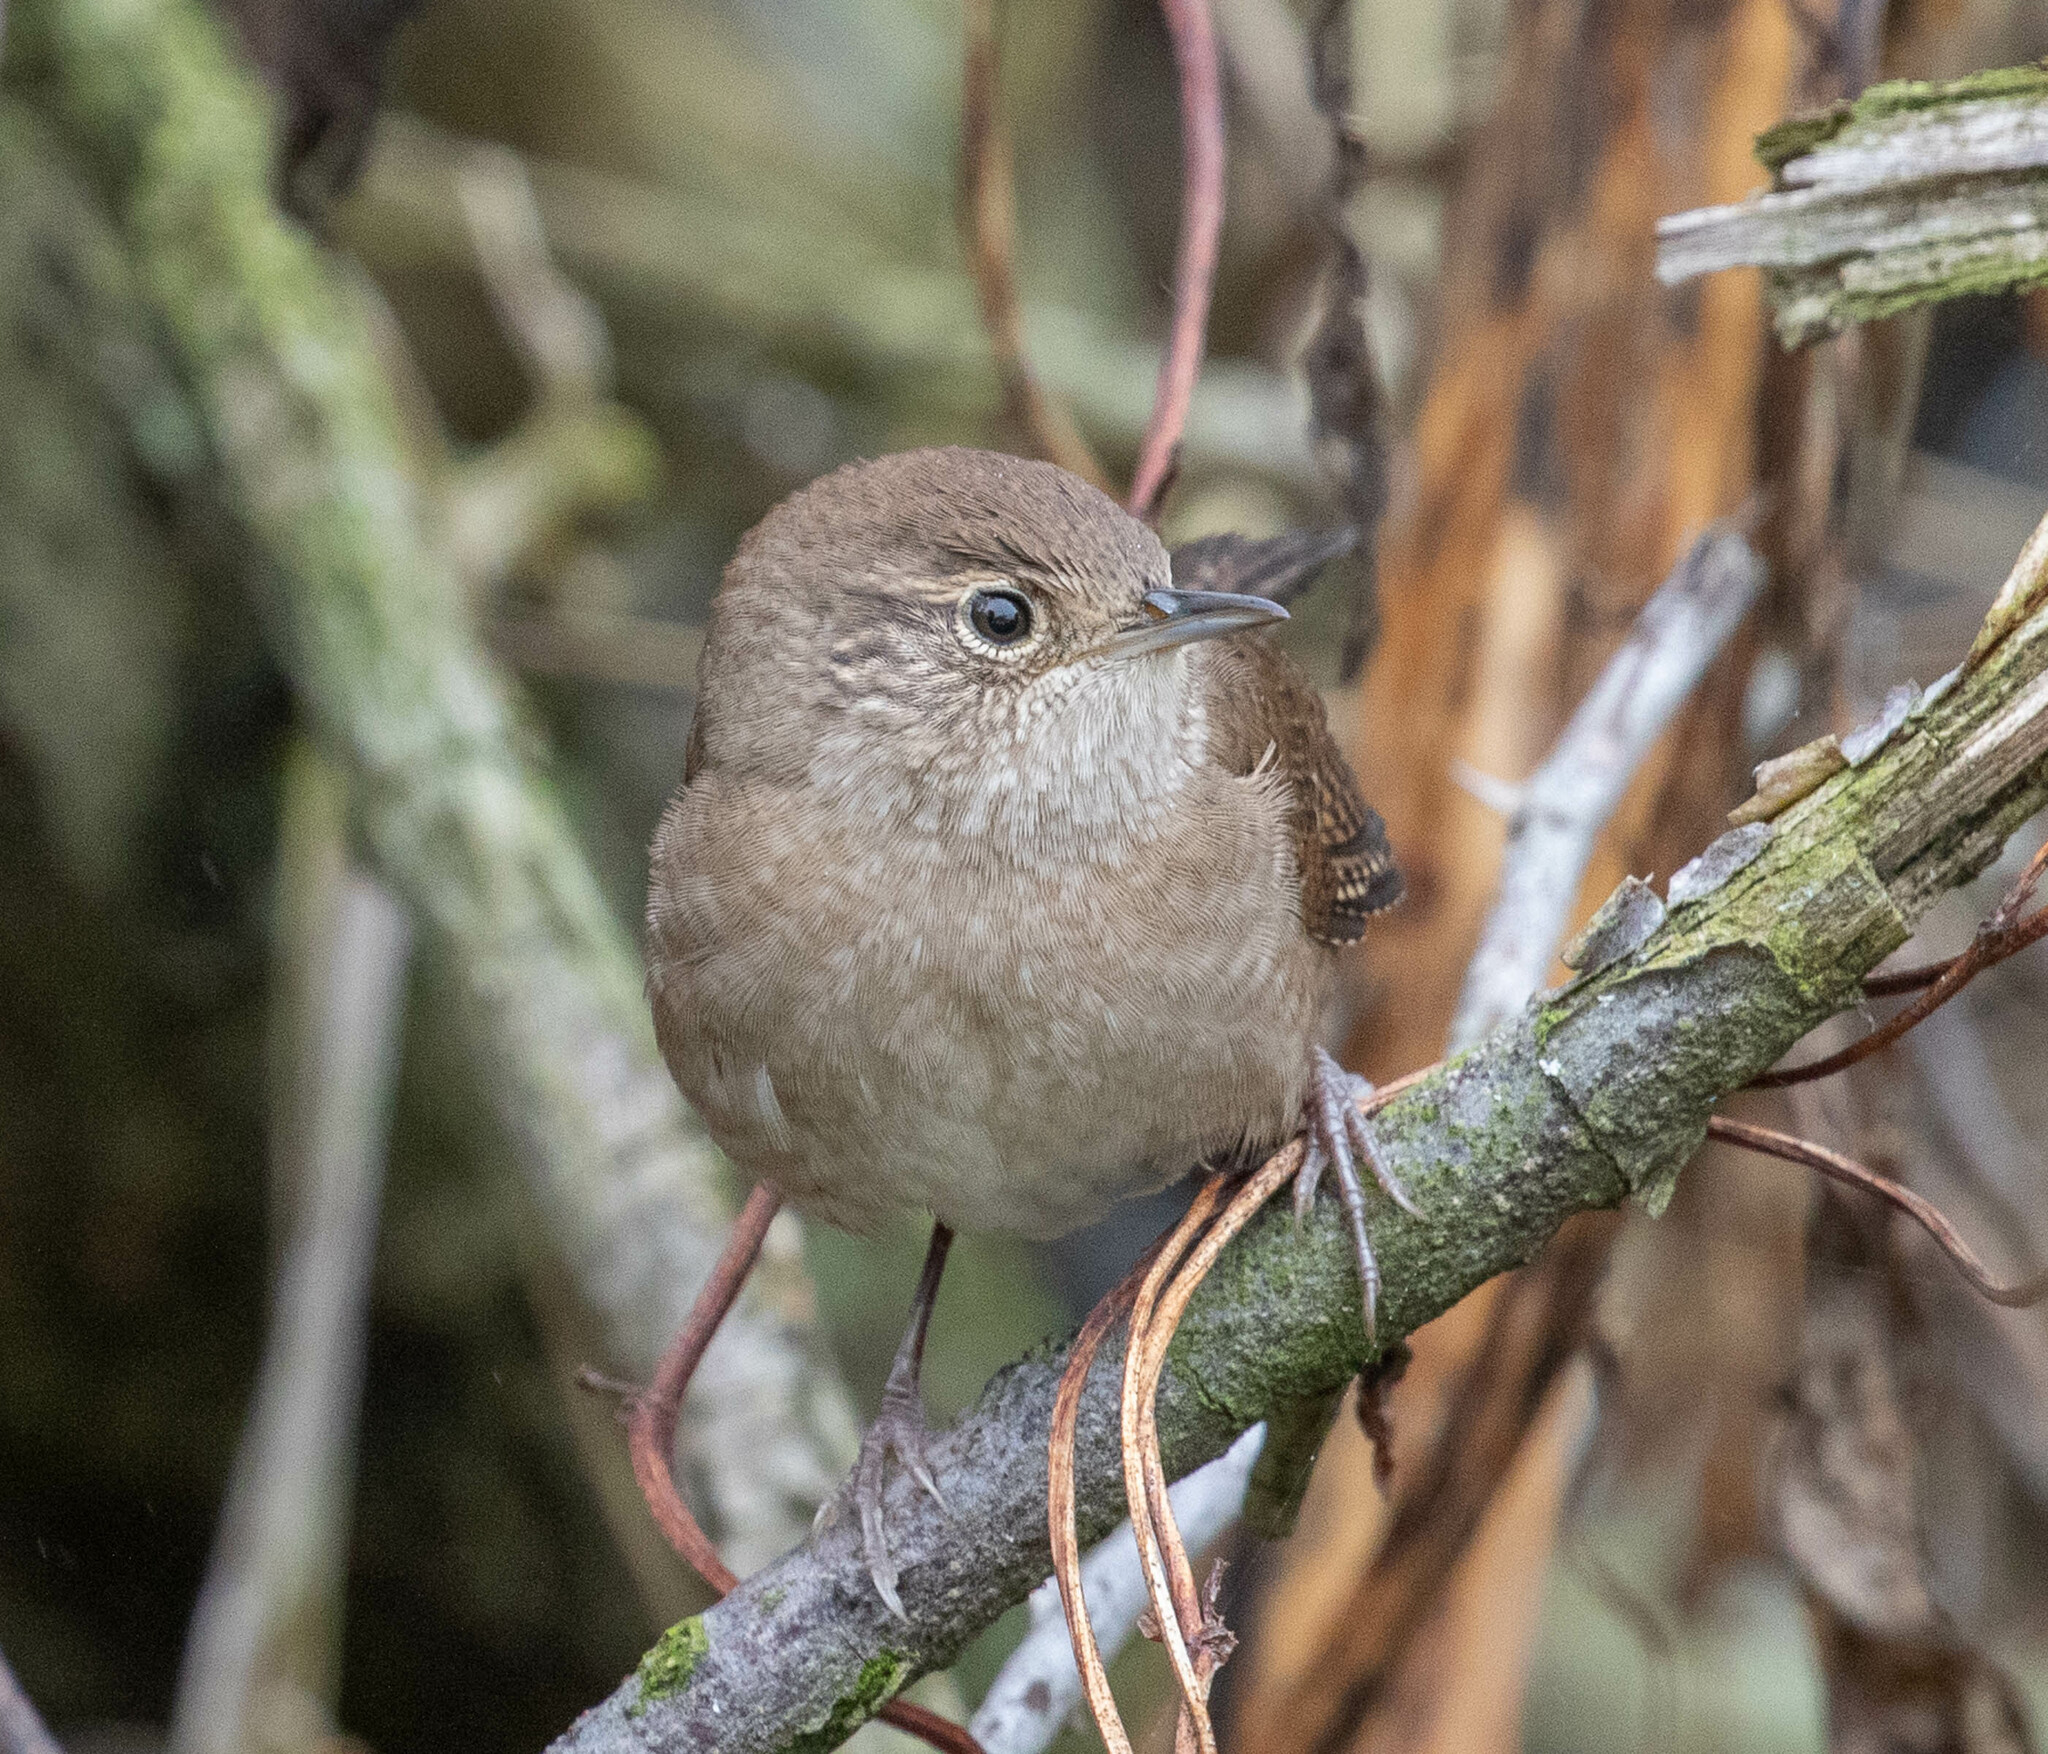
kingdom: Animalia
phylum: Chordata
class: Aves
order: Passeriformes
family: Troglodytidae
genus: Troglodytes
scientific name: Troglodytes aedon
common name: House wren
